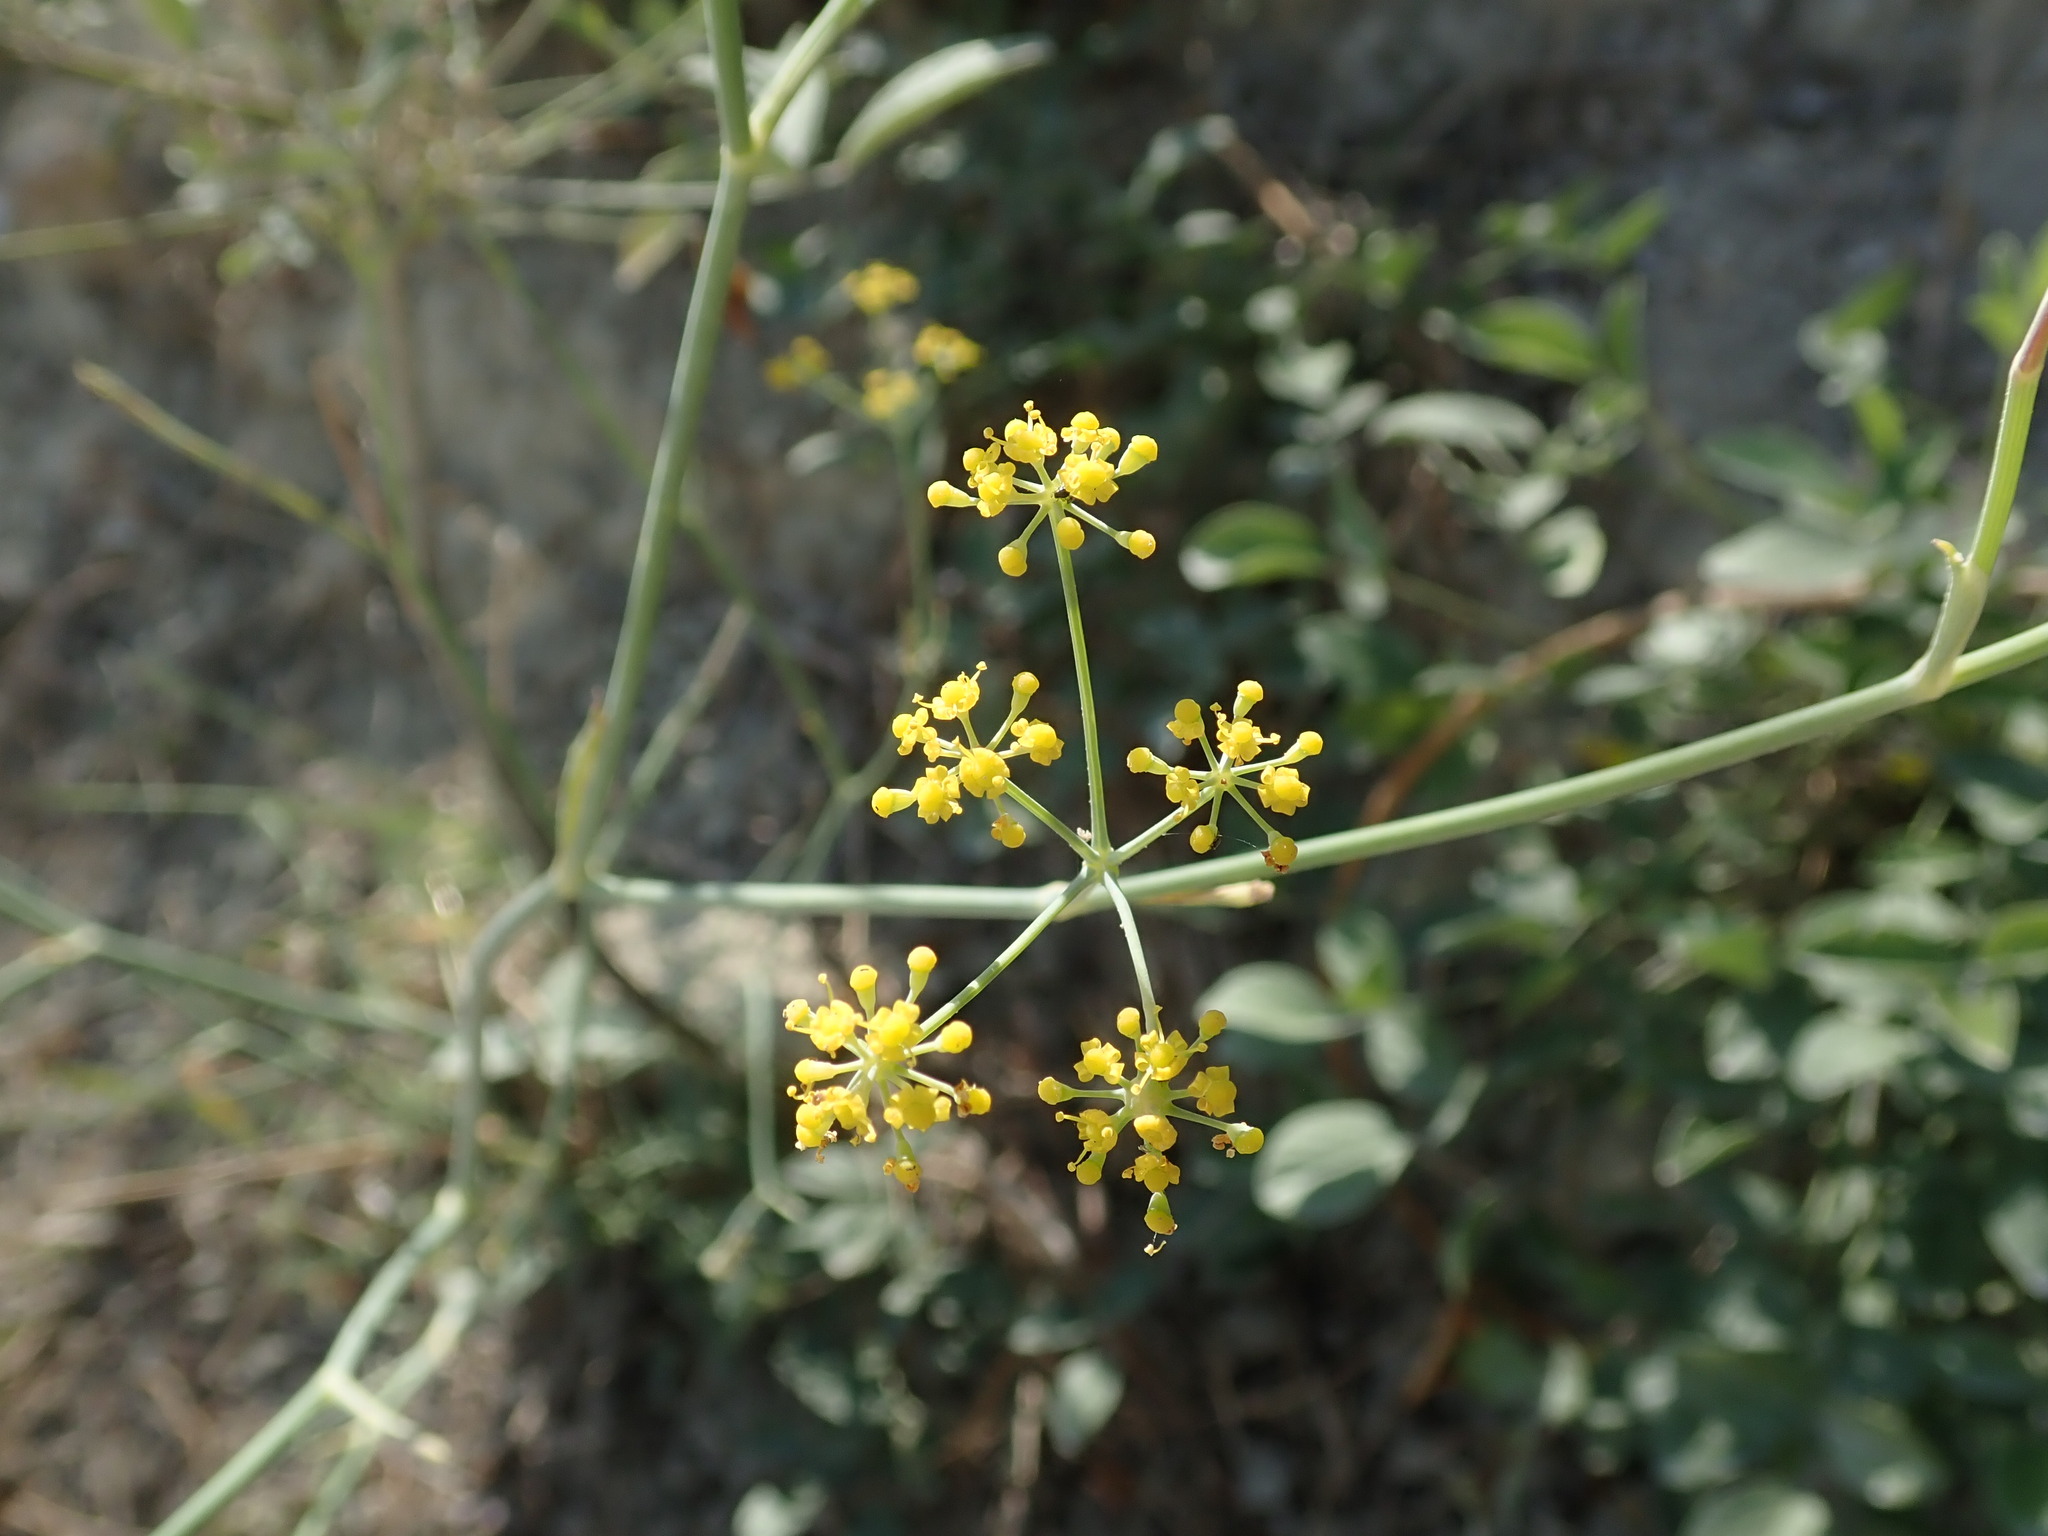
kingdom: Plantae
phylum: Tracheophyta
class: Magnoliopsida
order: Apiales
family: Apiaceae
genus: Foeniculum
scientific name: Foeniculum vulgare
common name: Fennel
